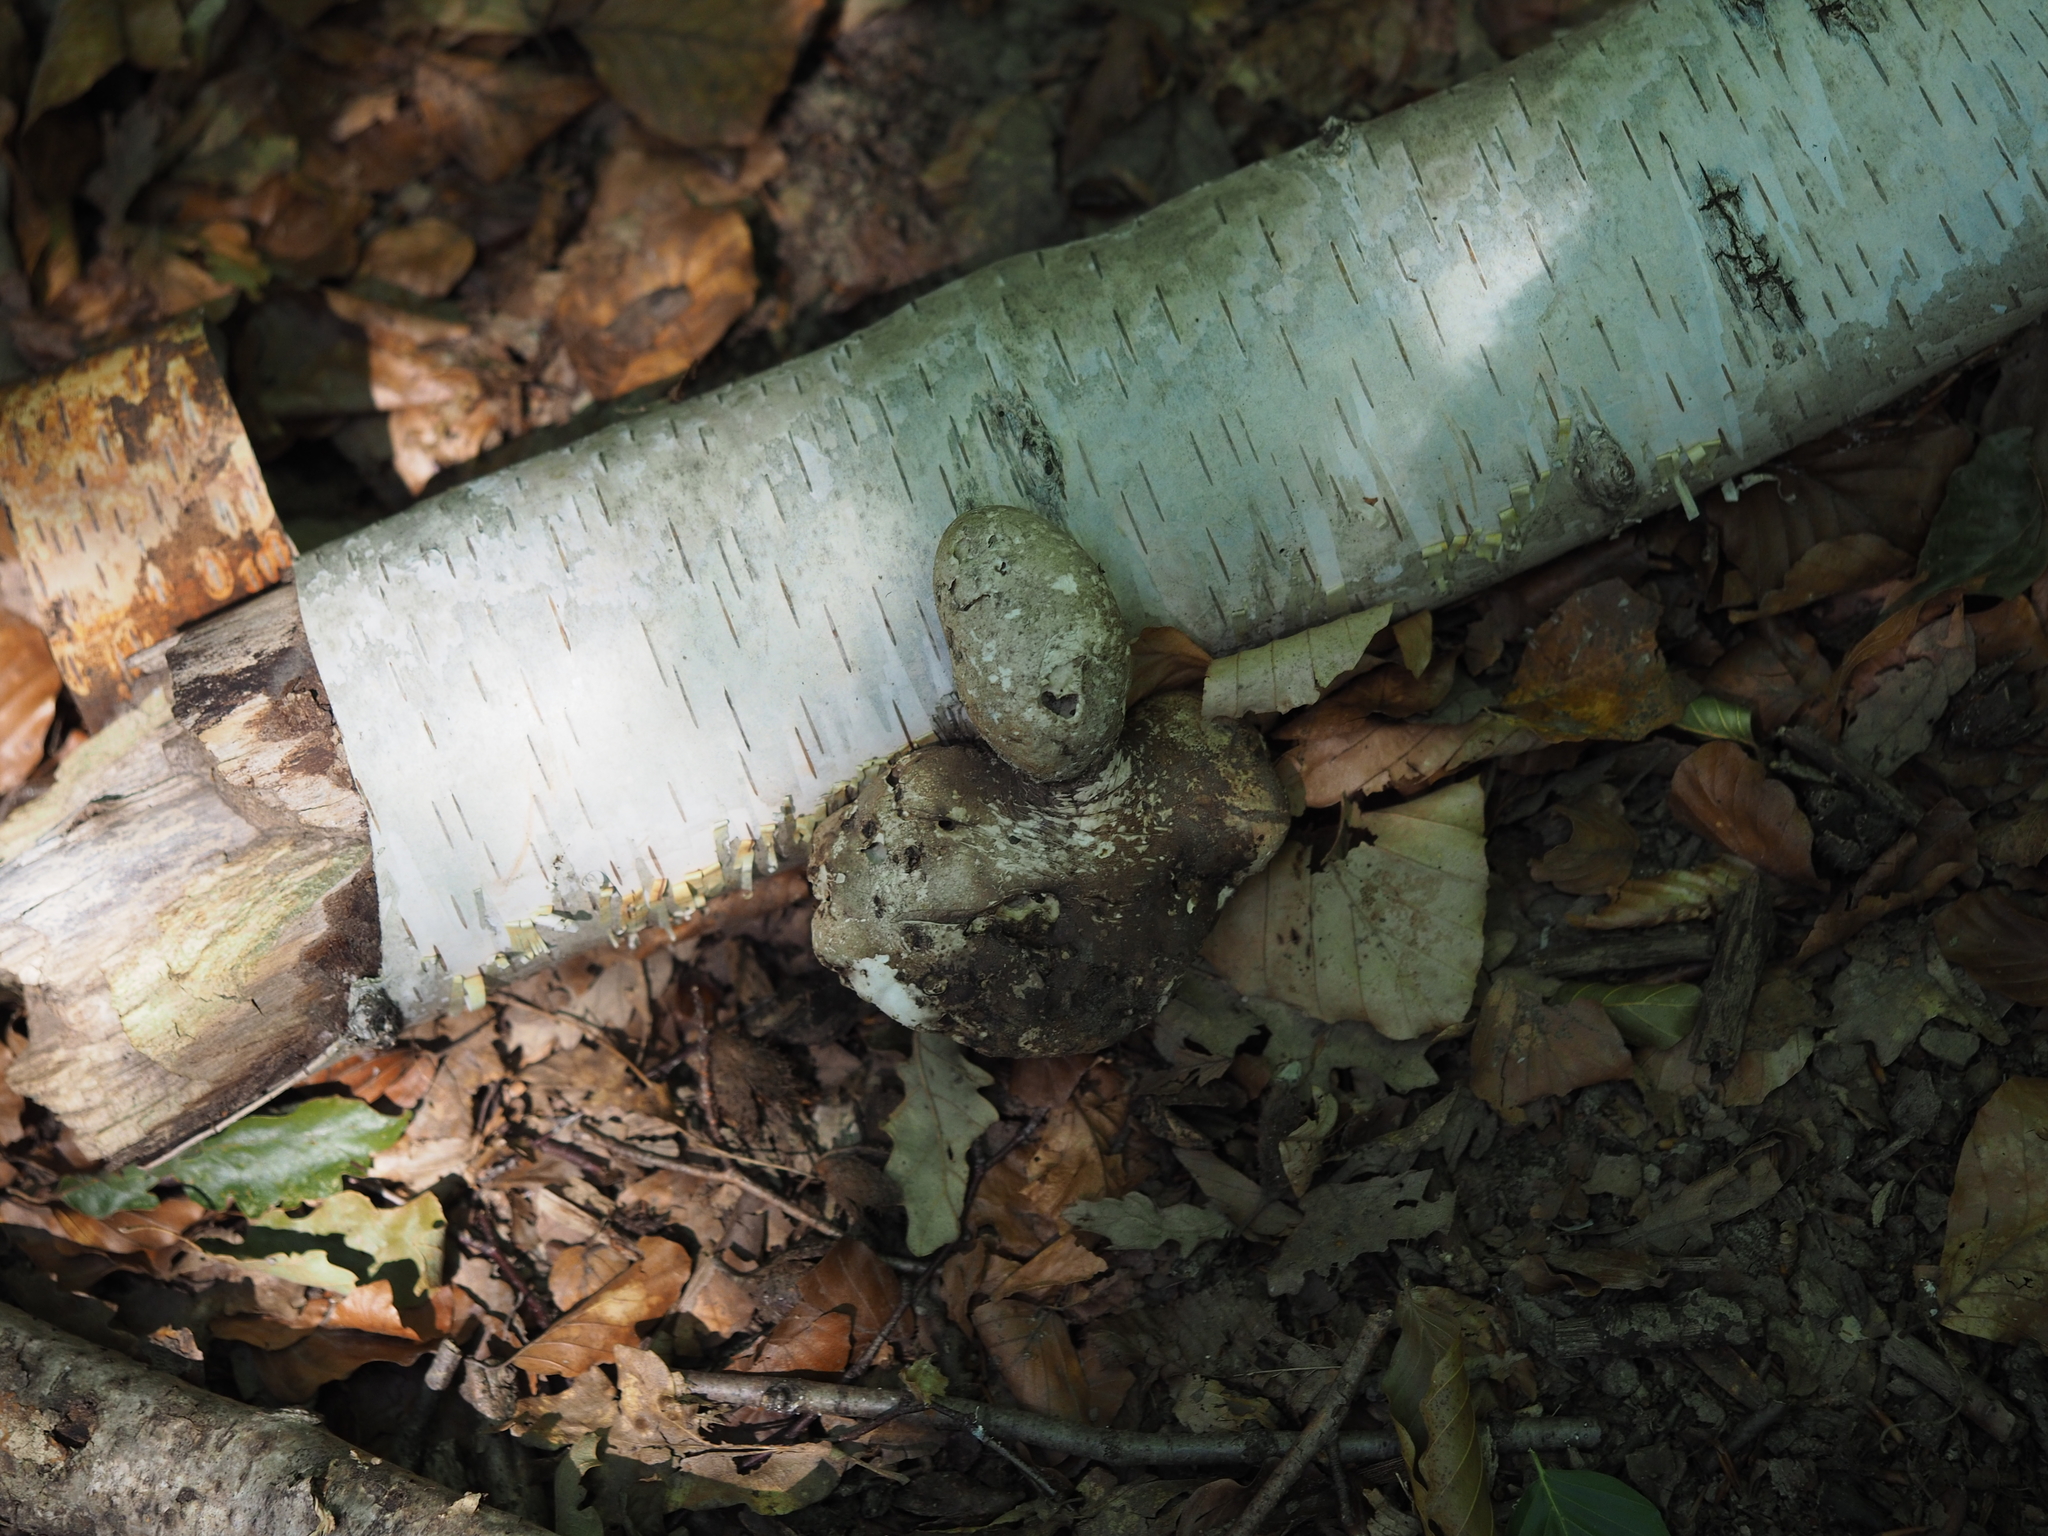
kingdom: Fungi
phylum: Basidiomycota
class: Agaricomycetes
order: Polyporales
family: Fomitopsidaceae
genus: Fomitopsis
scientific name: Fomitopsis betulina
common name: Birch polypore
